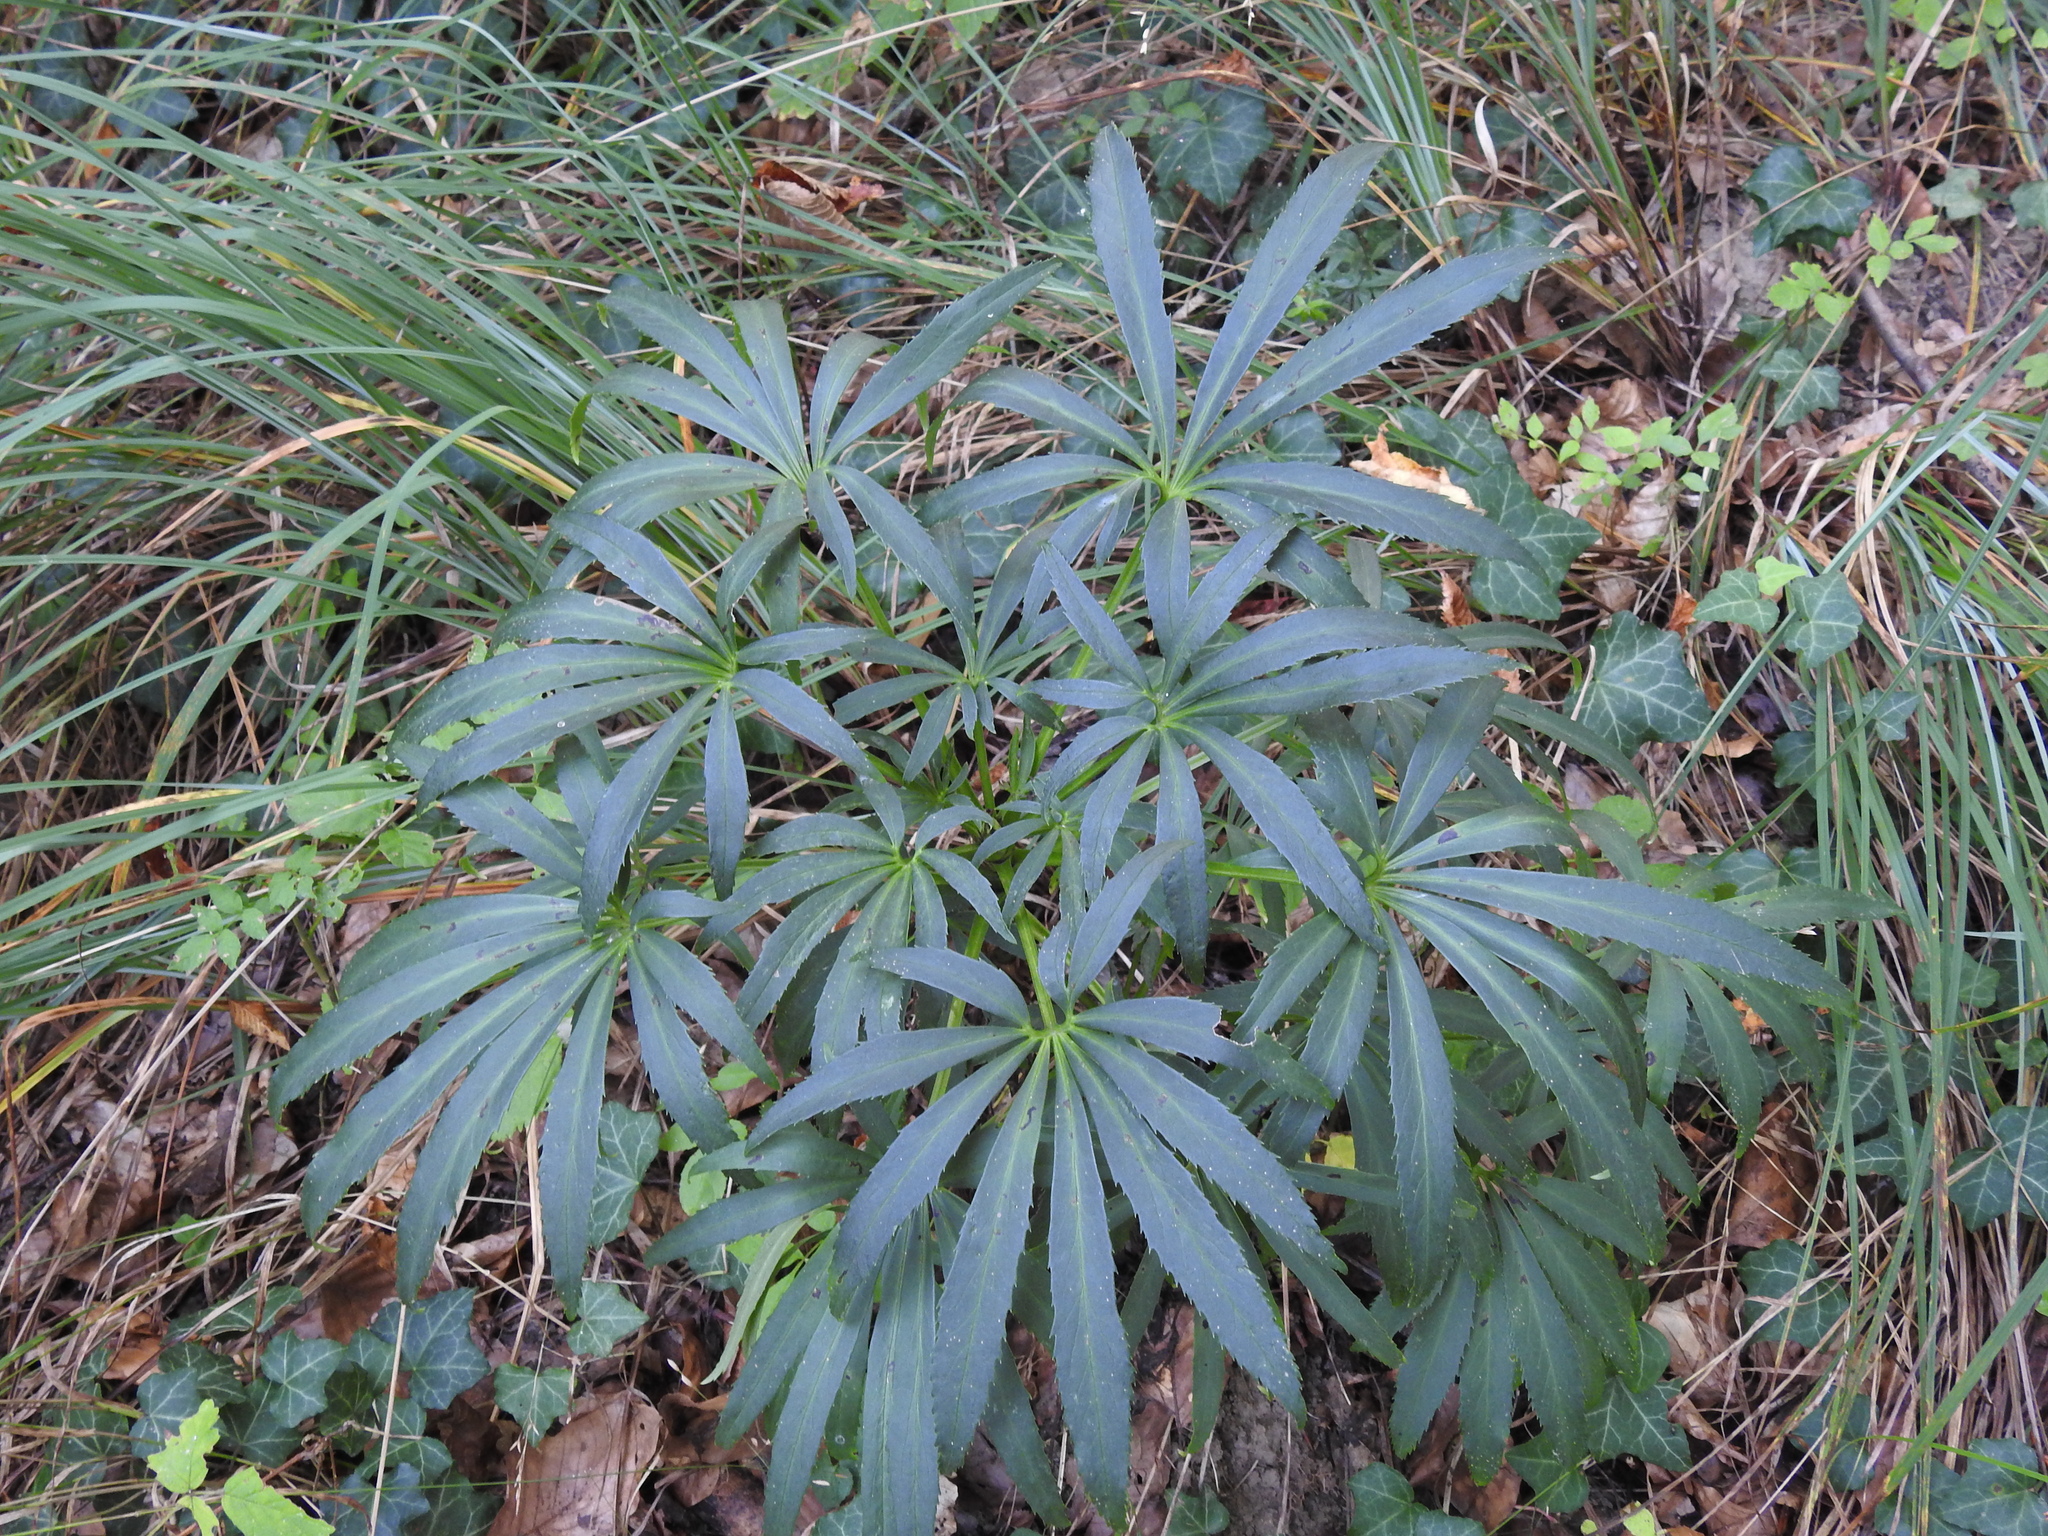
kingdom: Plantae
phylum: Tracheophyta
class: Magnoliopsida
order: Ranunculales
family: Ranunculaceae
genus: Helleborus
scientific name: Helleborus foetidus
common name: Stinking hellebore
